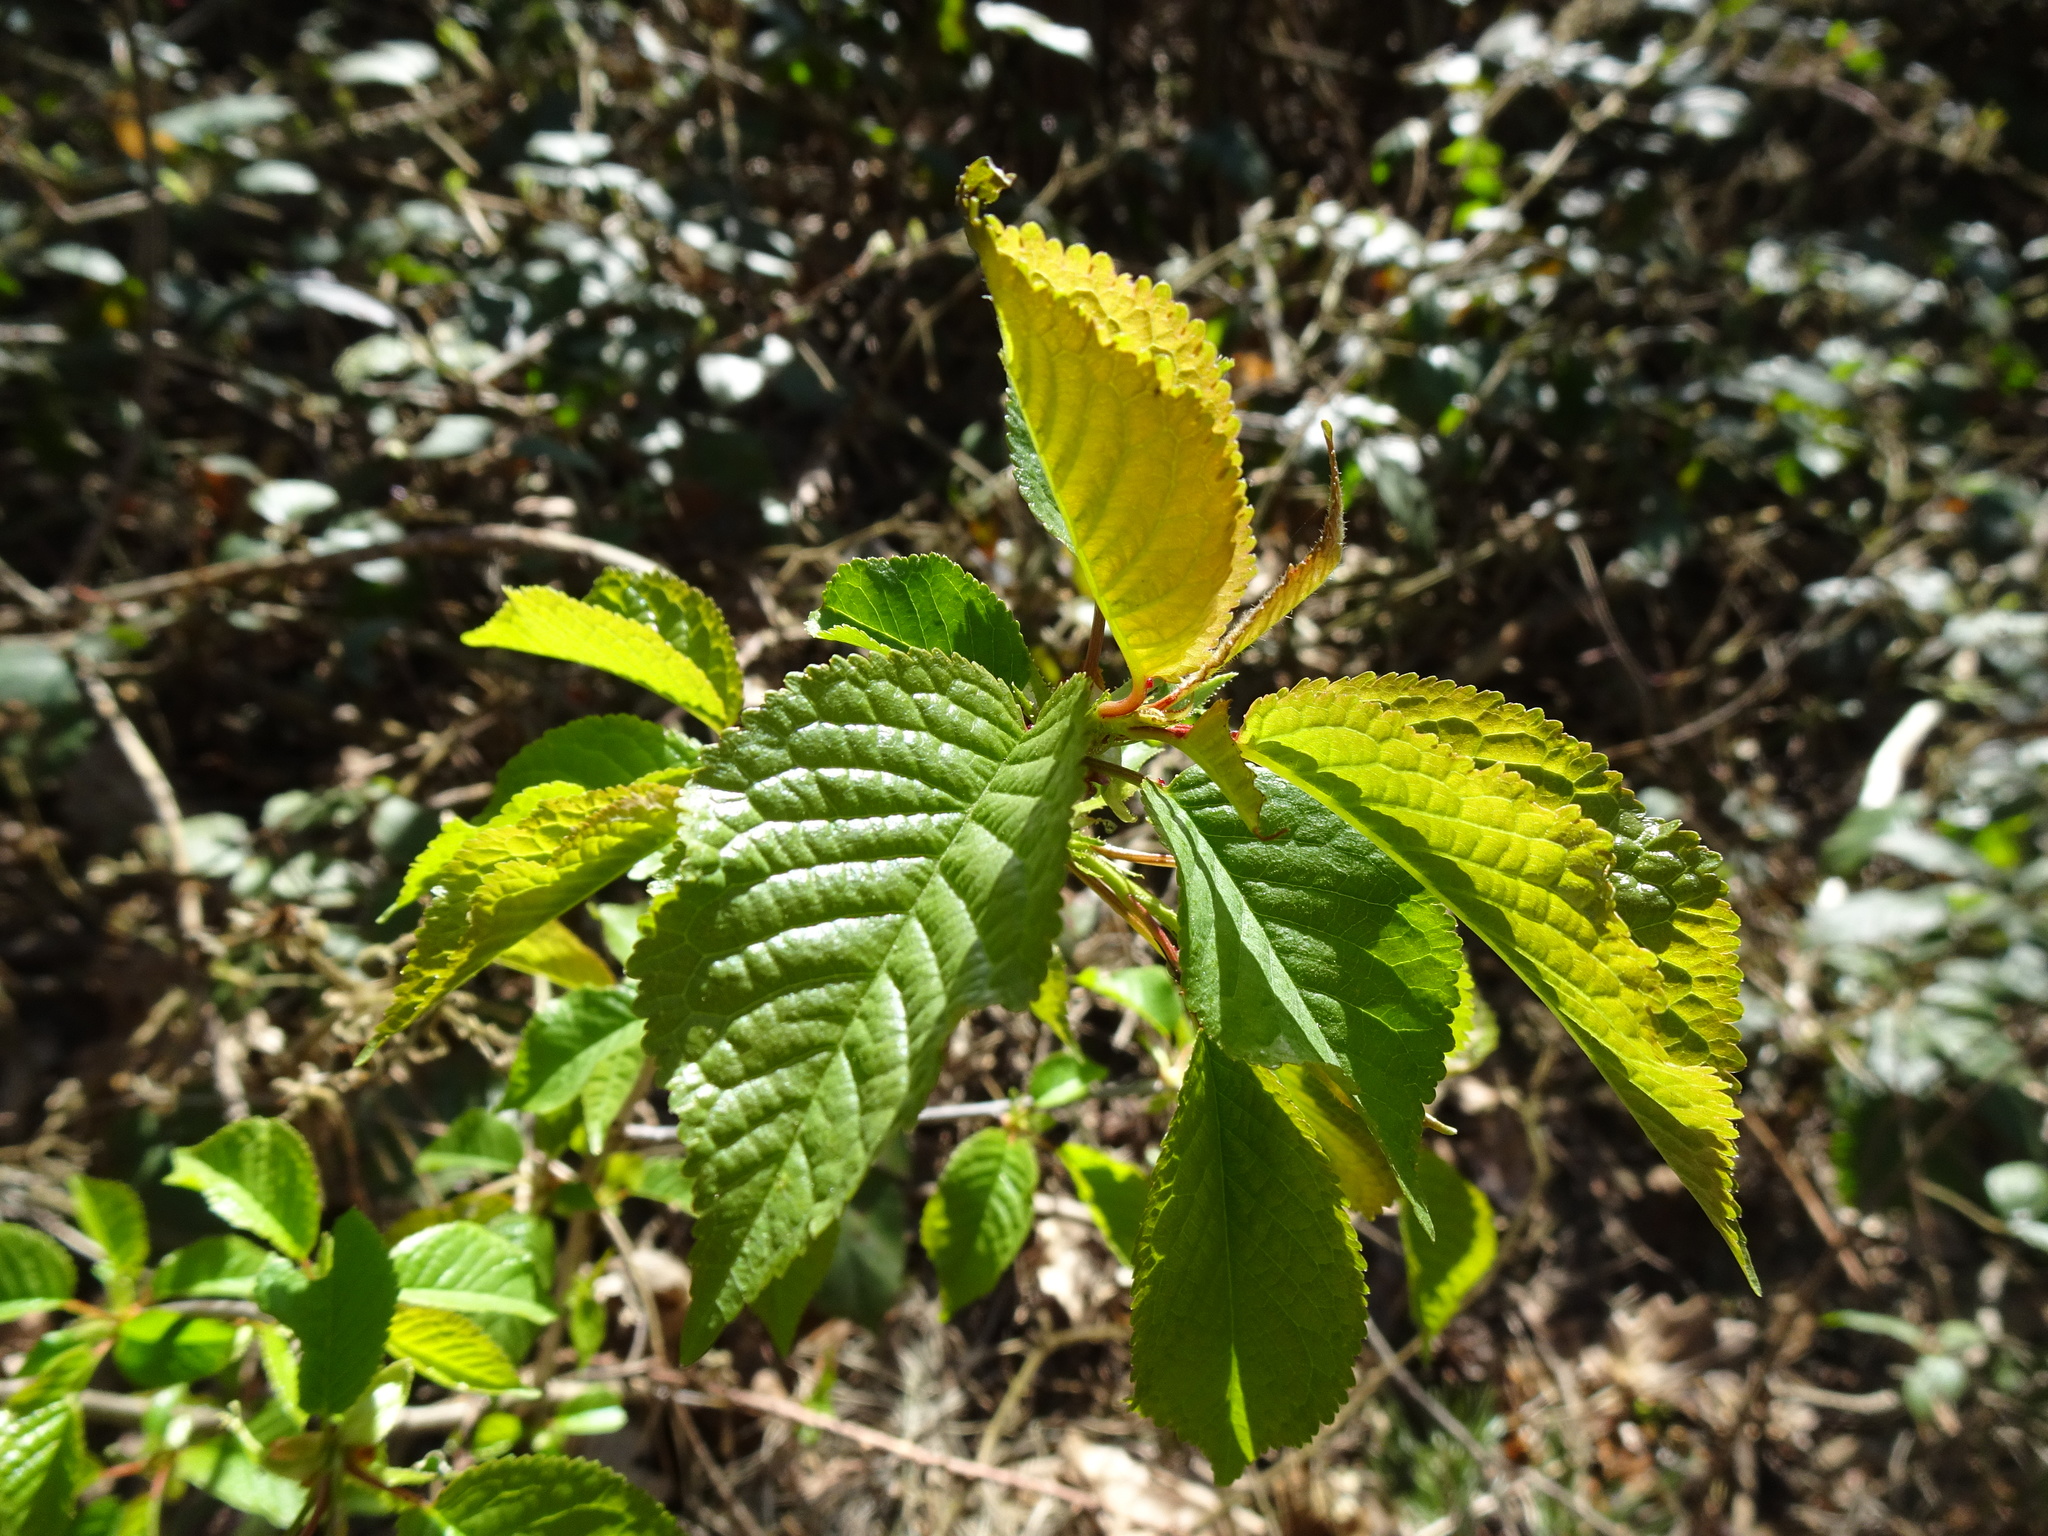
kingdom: Plantae
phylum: Tracheophyta
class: Magnoliopsida
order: Rosales
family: Rosaceae
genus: Prunus
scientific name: Prunus avium
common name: Sweet cherry
